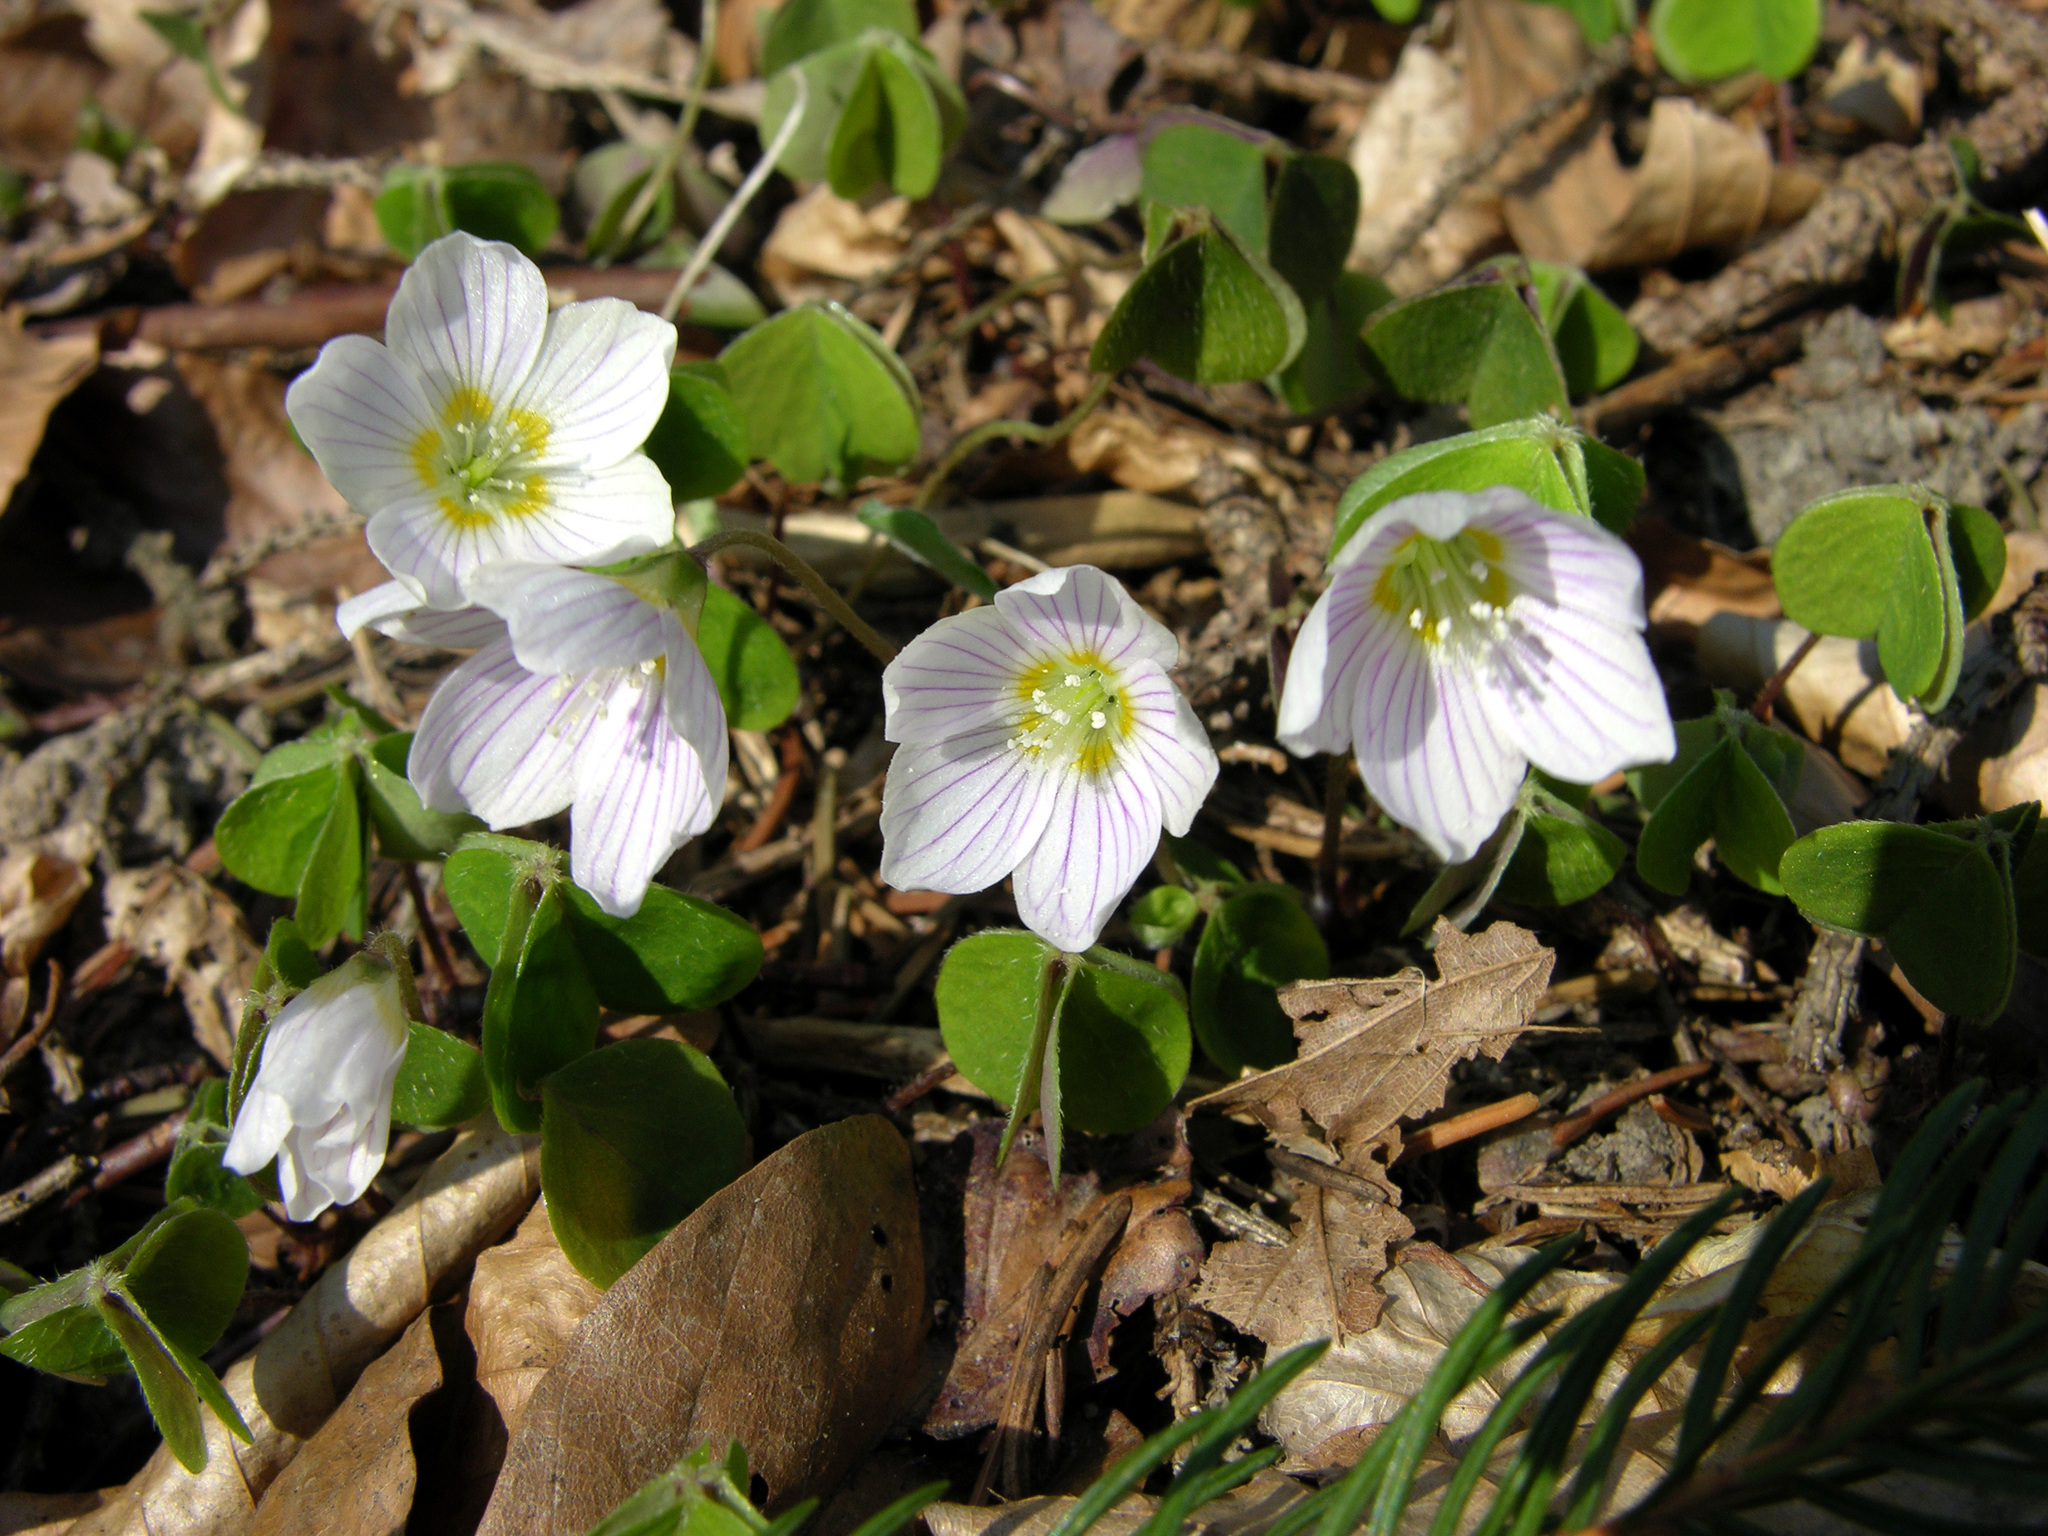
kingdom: Plantae
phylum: Tracheophyta
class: Magnoliopsida
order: Oxalidales
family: Oxalidaceae
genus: Oxalis
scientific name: Oxalis acetosella
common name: Wood-sorrel
